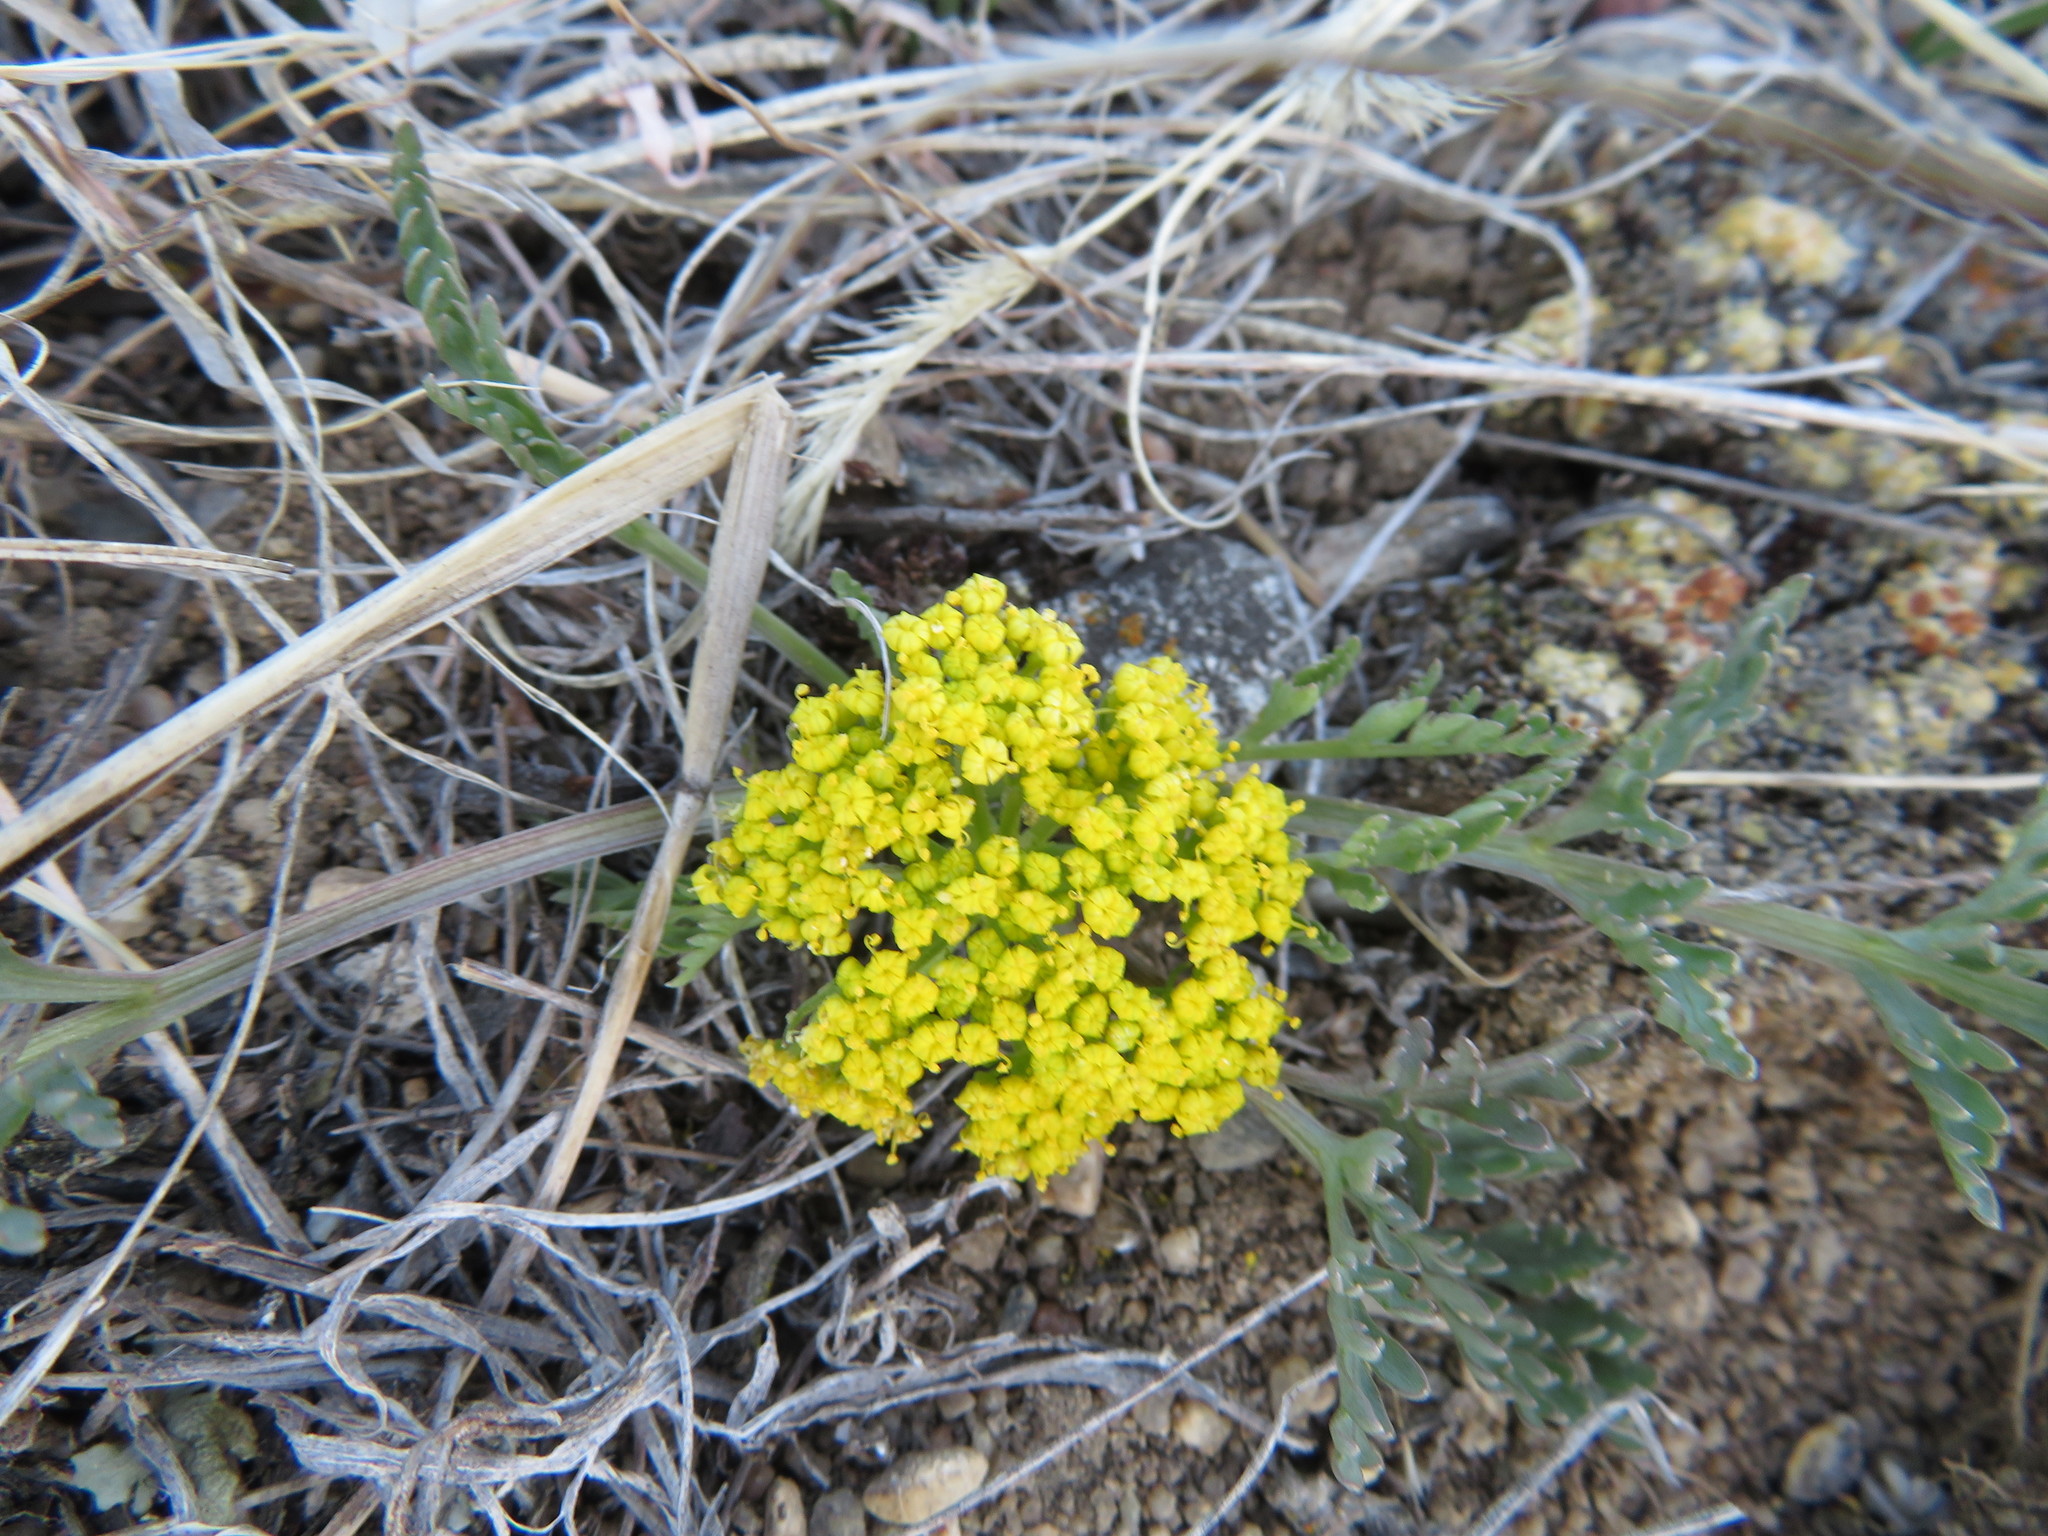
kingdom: Plantae
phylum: Tracheophyta
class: Magnoliopsida
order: Apiales
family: Apiaceae
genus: Musineon
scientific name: Musineon divaricatum
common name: Plains musineon
